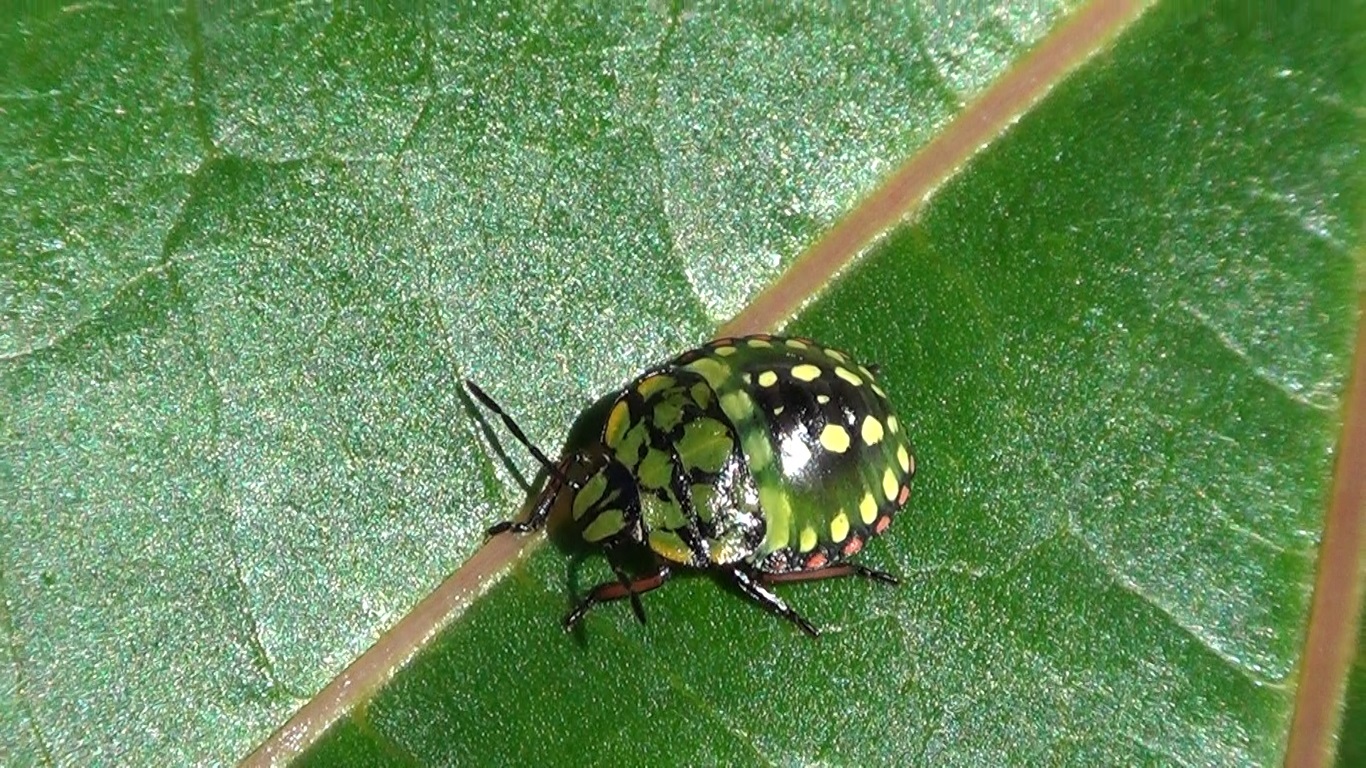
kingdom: Animalia
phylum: Arthropoda
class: Insecta
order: Hemiptera
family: Pentatomidae
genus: Nezara
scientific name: Nezara viridula
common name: Southern green stink bug
